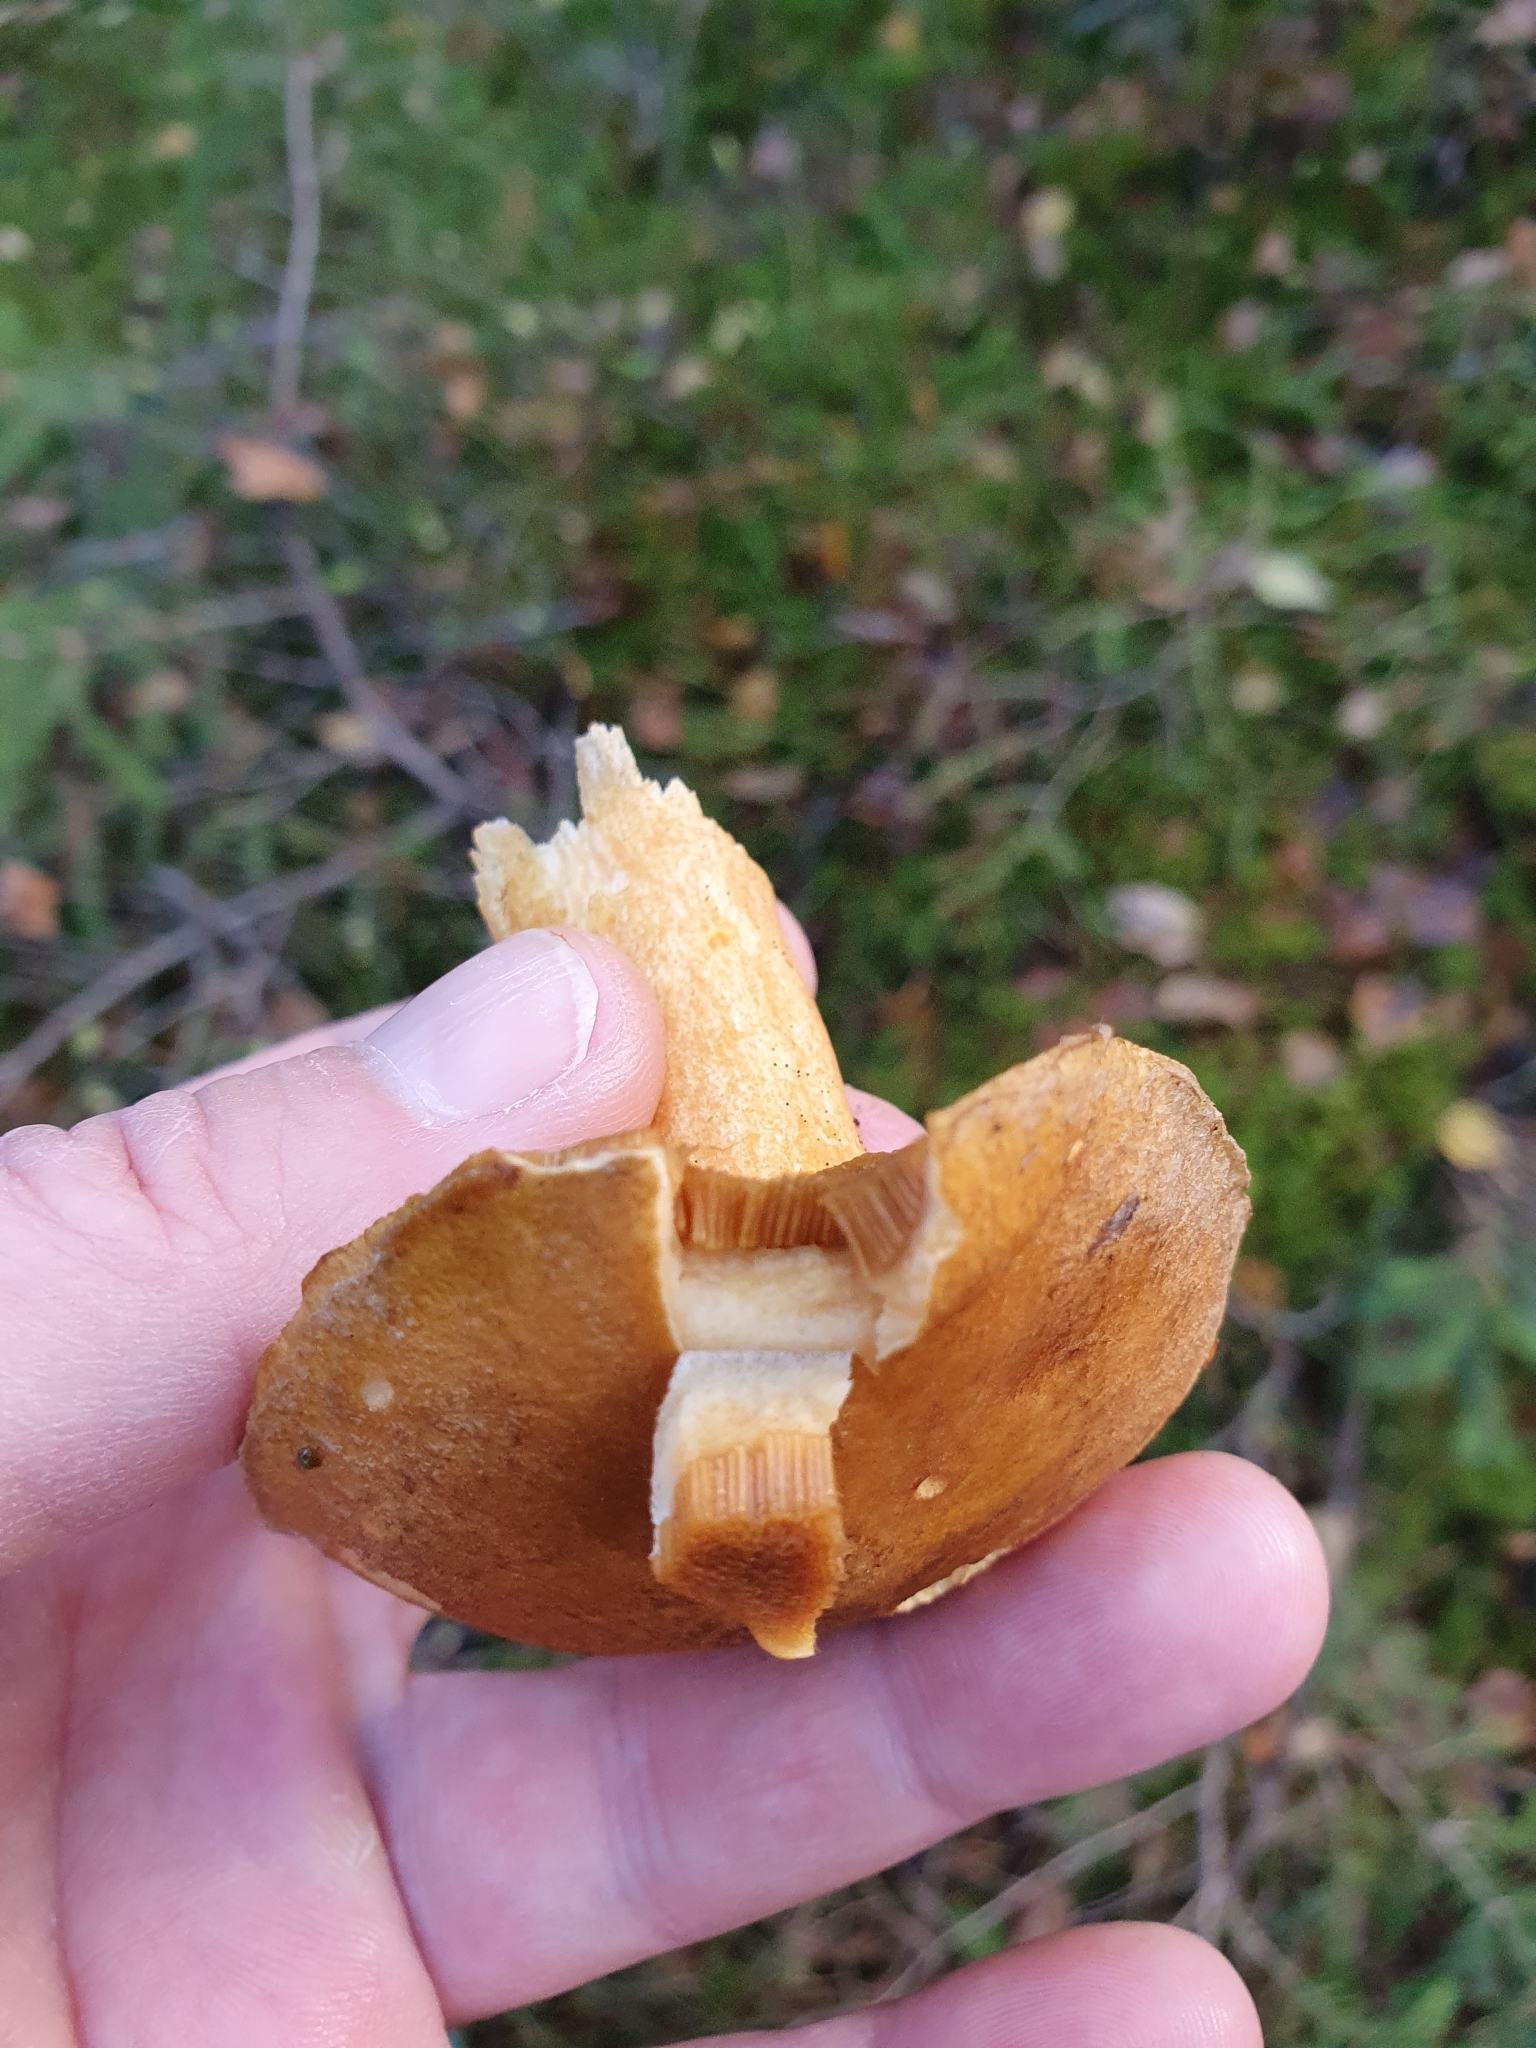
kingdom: Fungi
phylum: Basidiomycota
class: Agaricomycetes
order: Boletales
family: Suillaceae
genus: Suillus
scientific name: Suillus variegatus
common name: Velvet bolete
